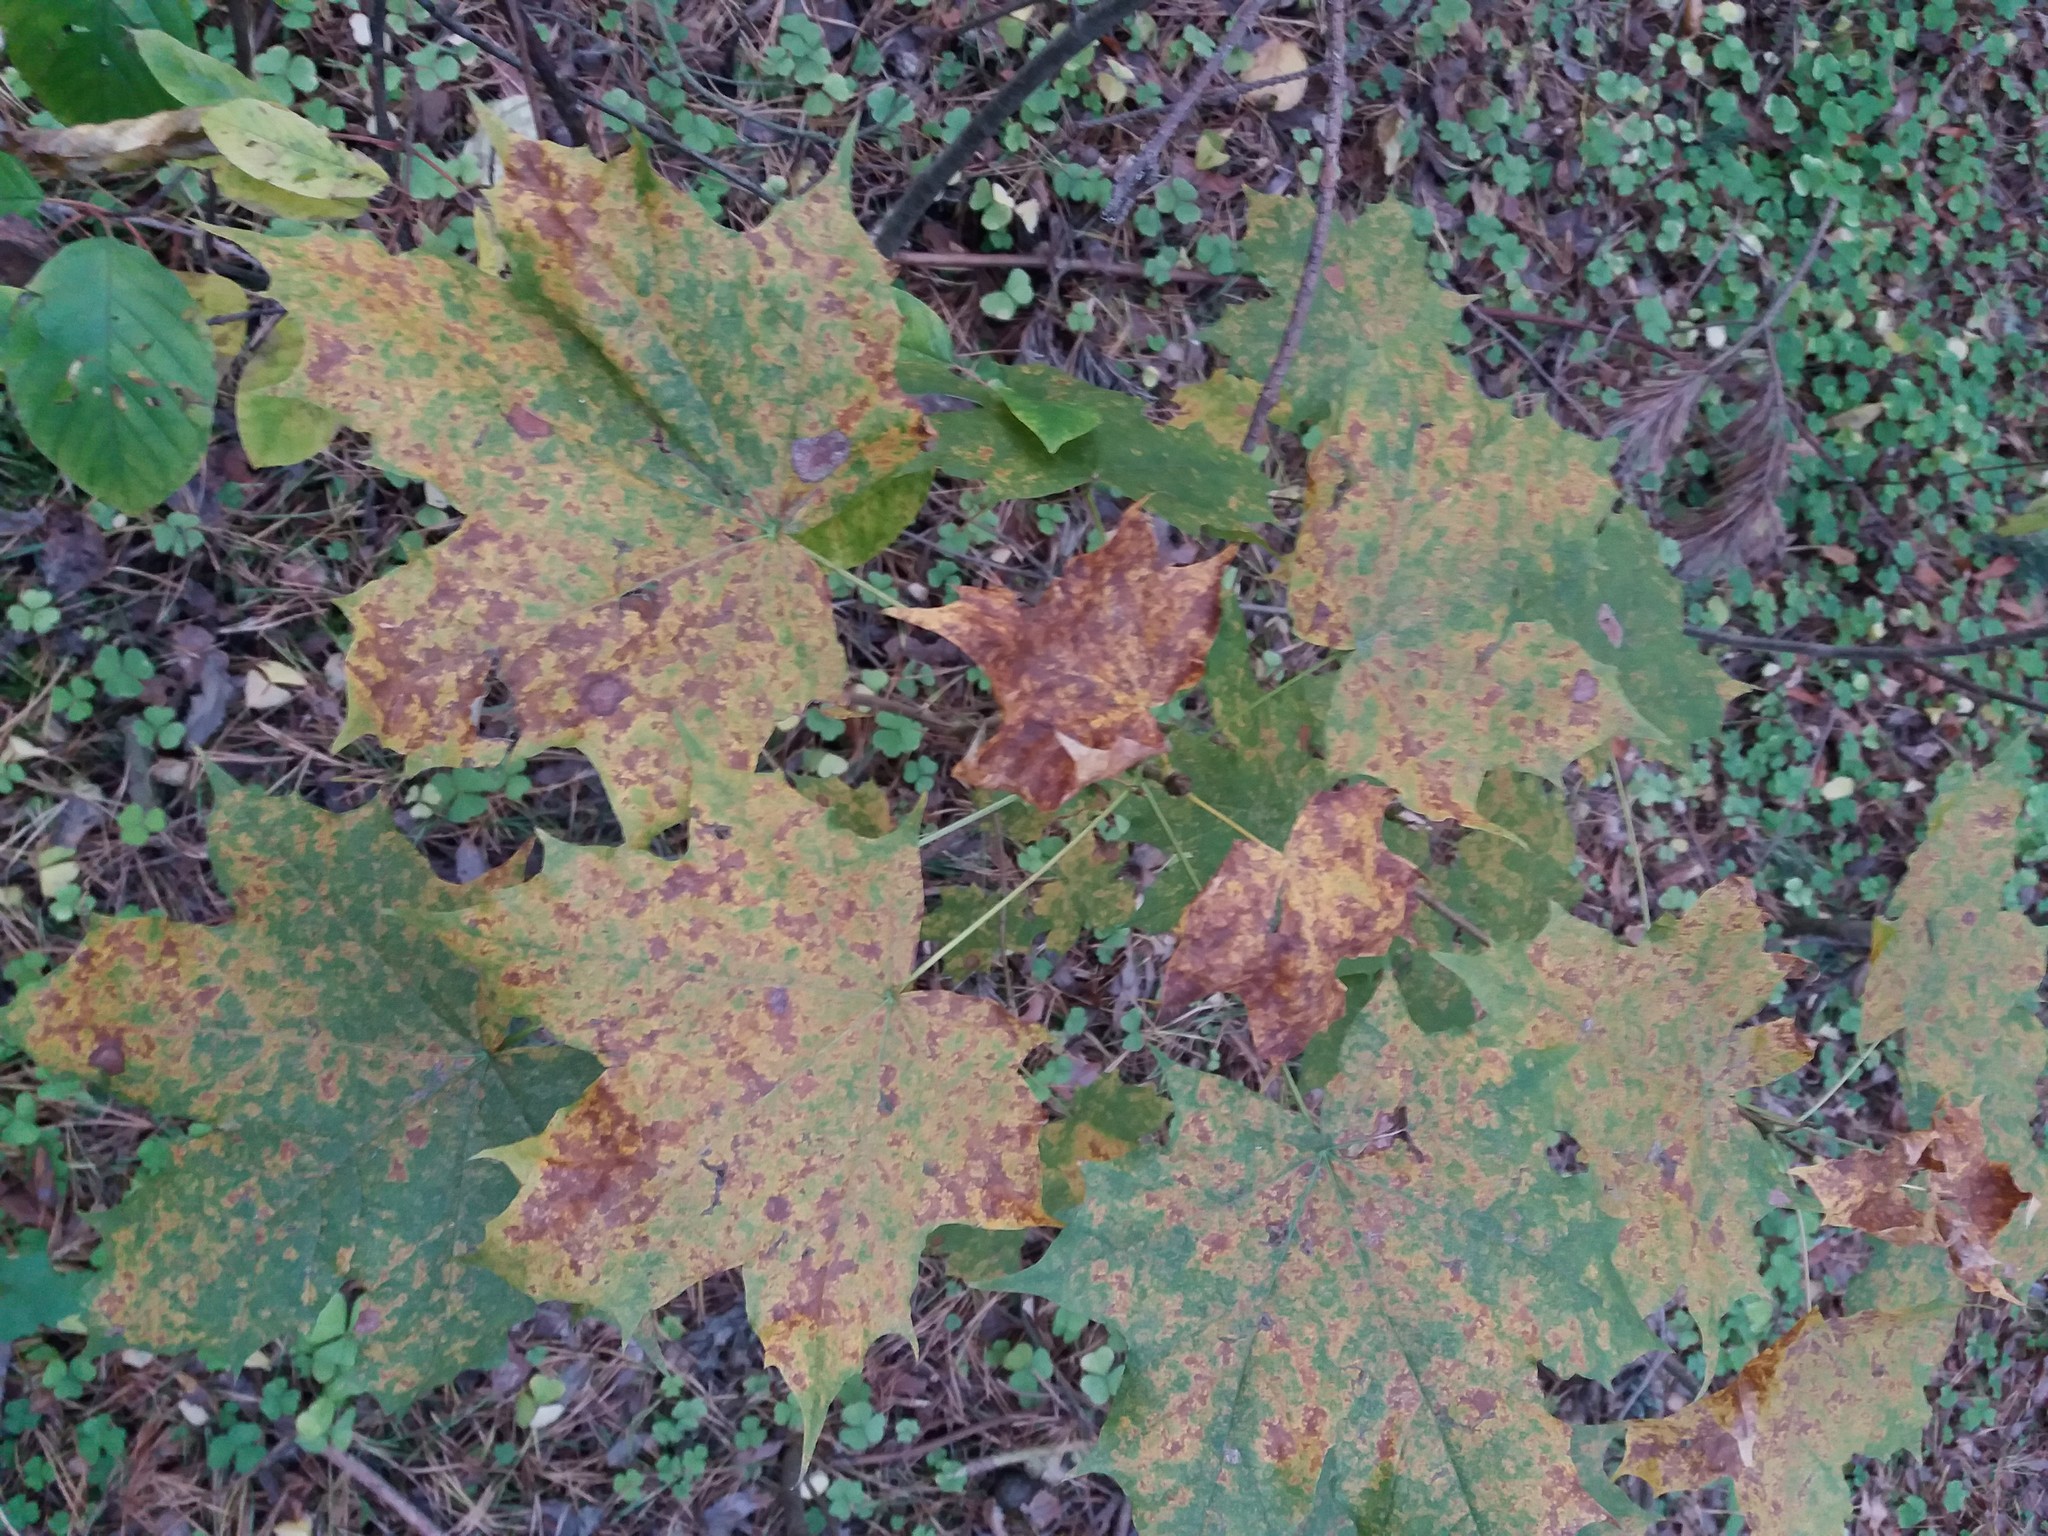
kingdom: Plantae
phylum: Tracheophyta
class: Magnoliopsida
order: Sapindales
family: Sapindaceae
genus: Acer
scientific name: Acer platanoides
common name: Norway maple
